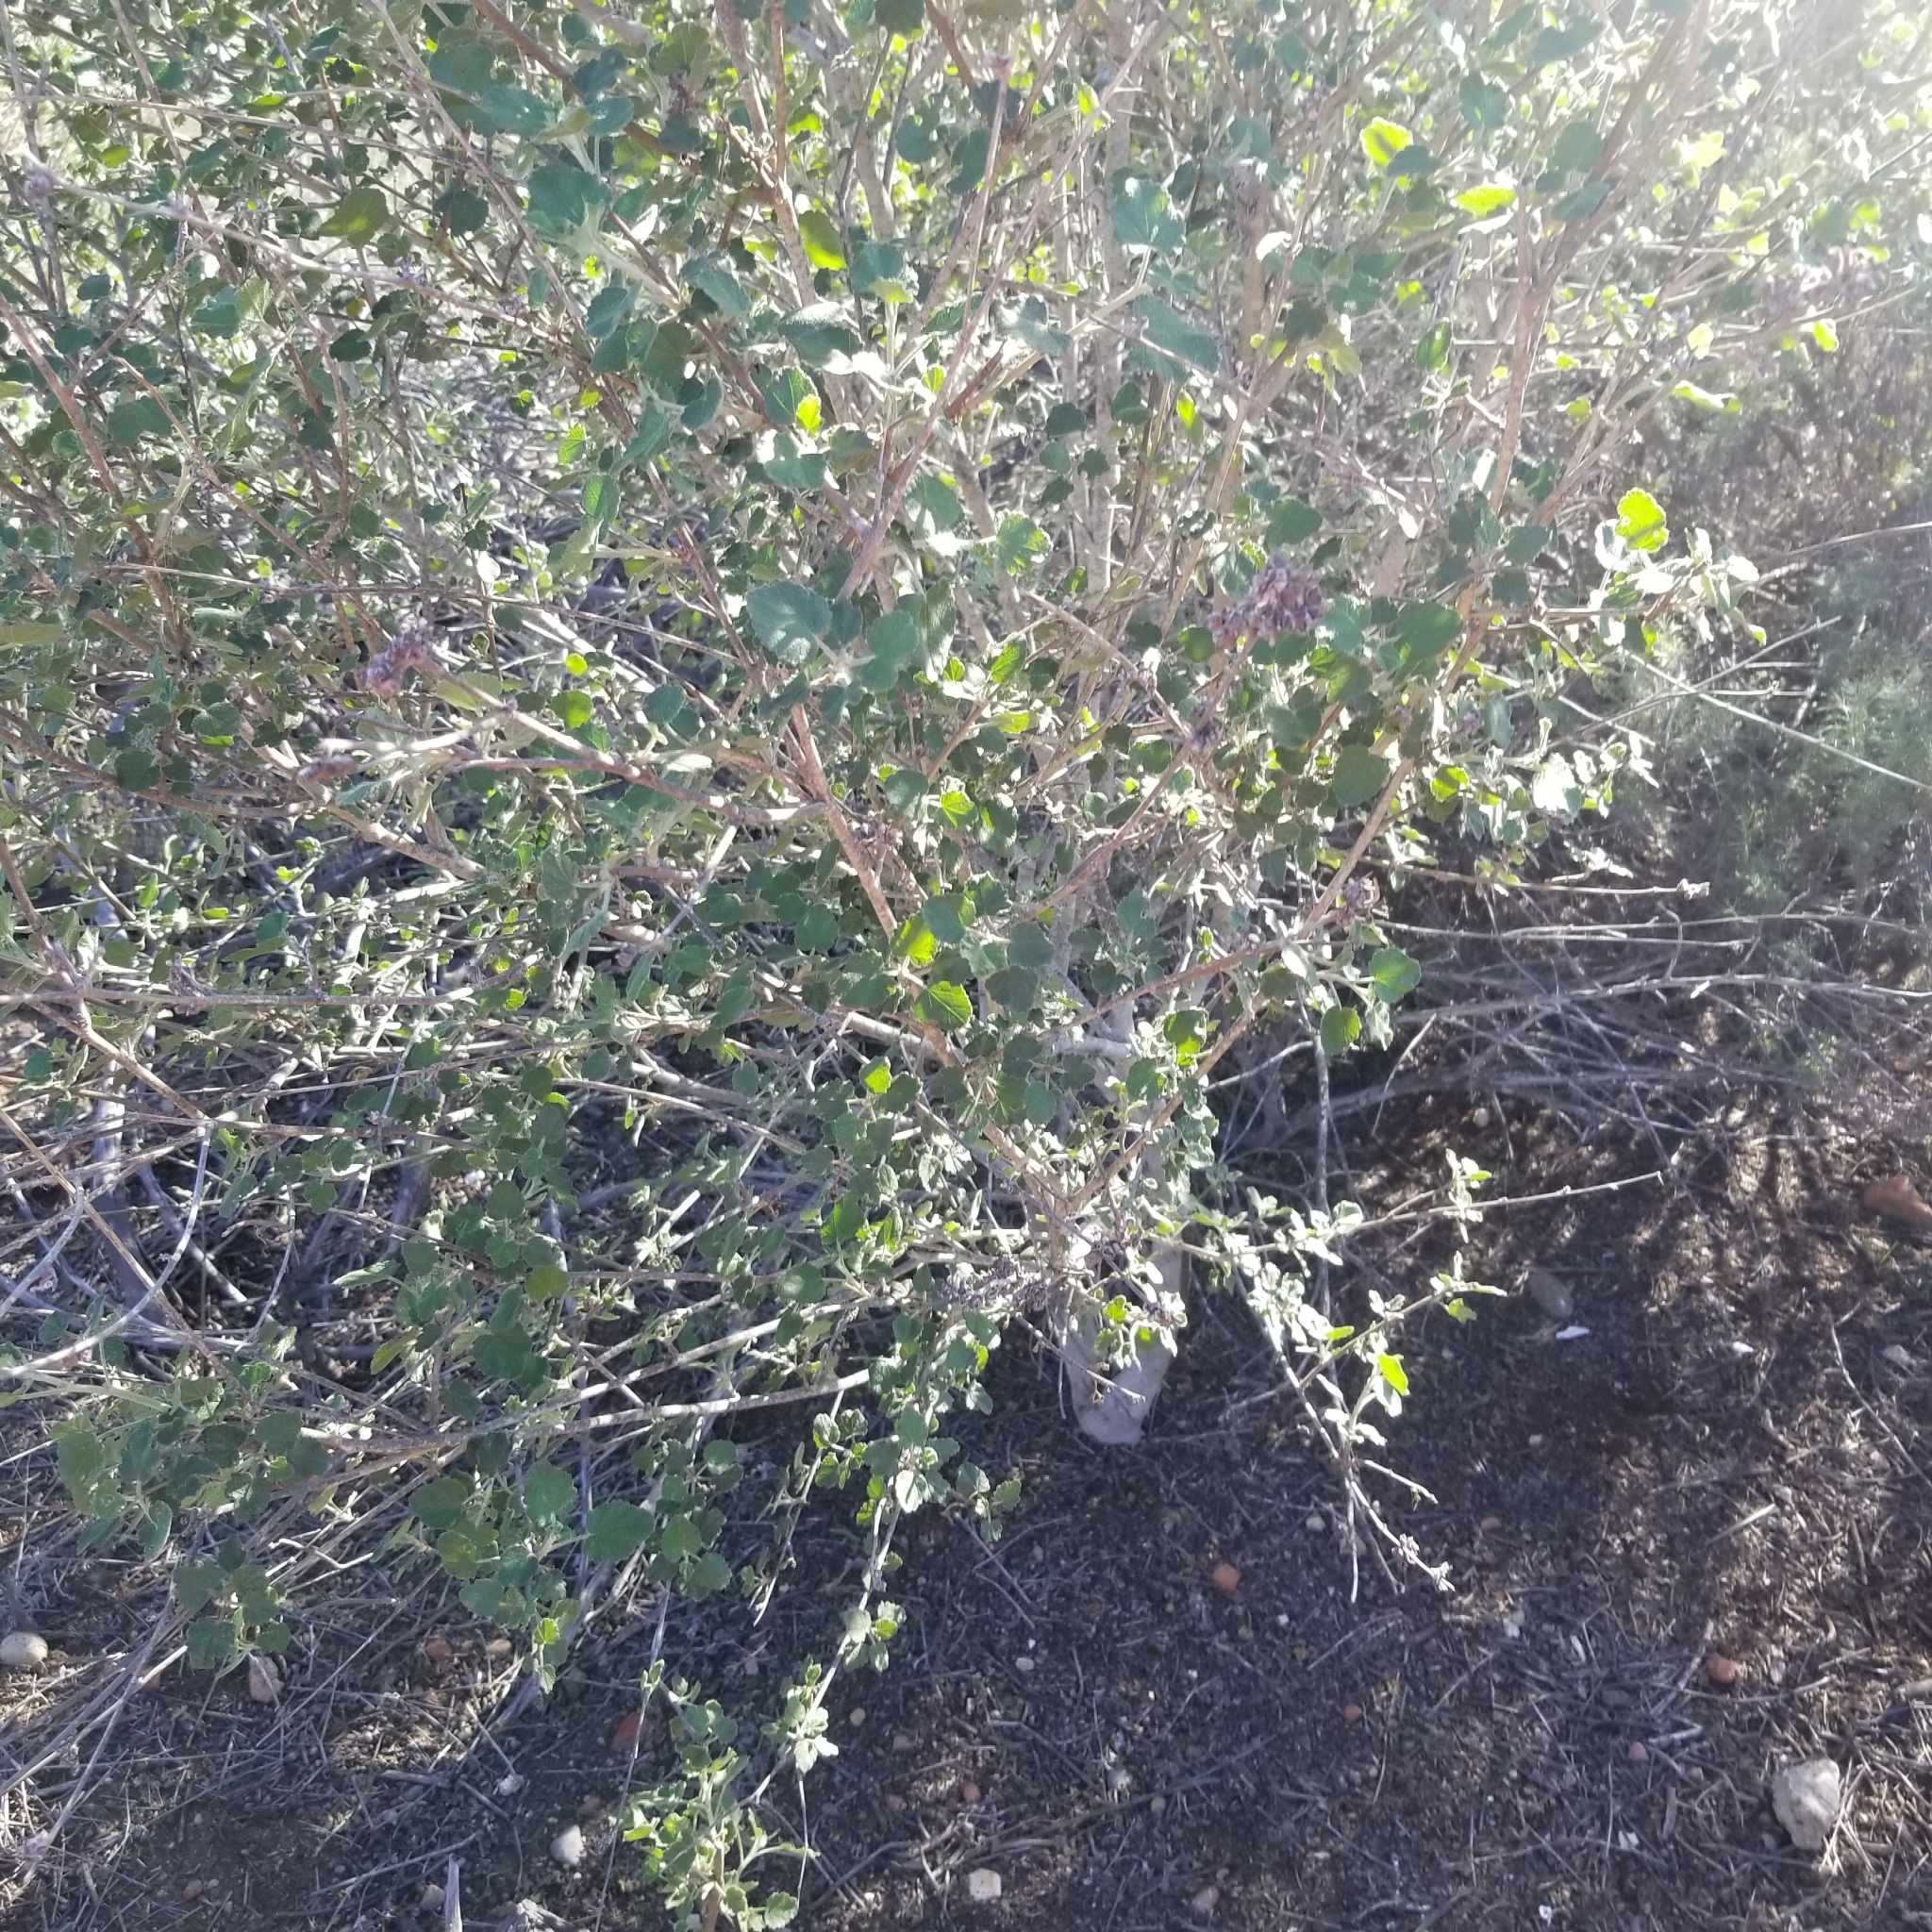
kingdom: Plantae
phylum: Tracheophyta
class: Magnoliopsida
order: Malvales
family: Malvaceae
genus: Malacothamnus
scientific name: Malacothamnus fasciculatus
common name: Sant cruz island bush-mallow
